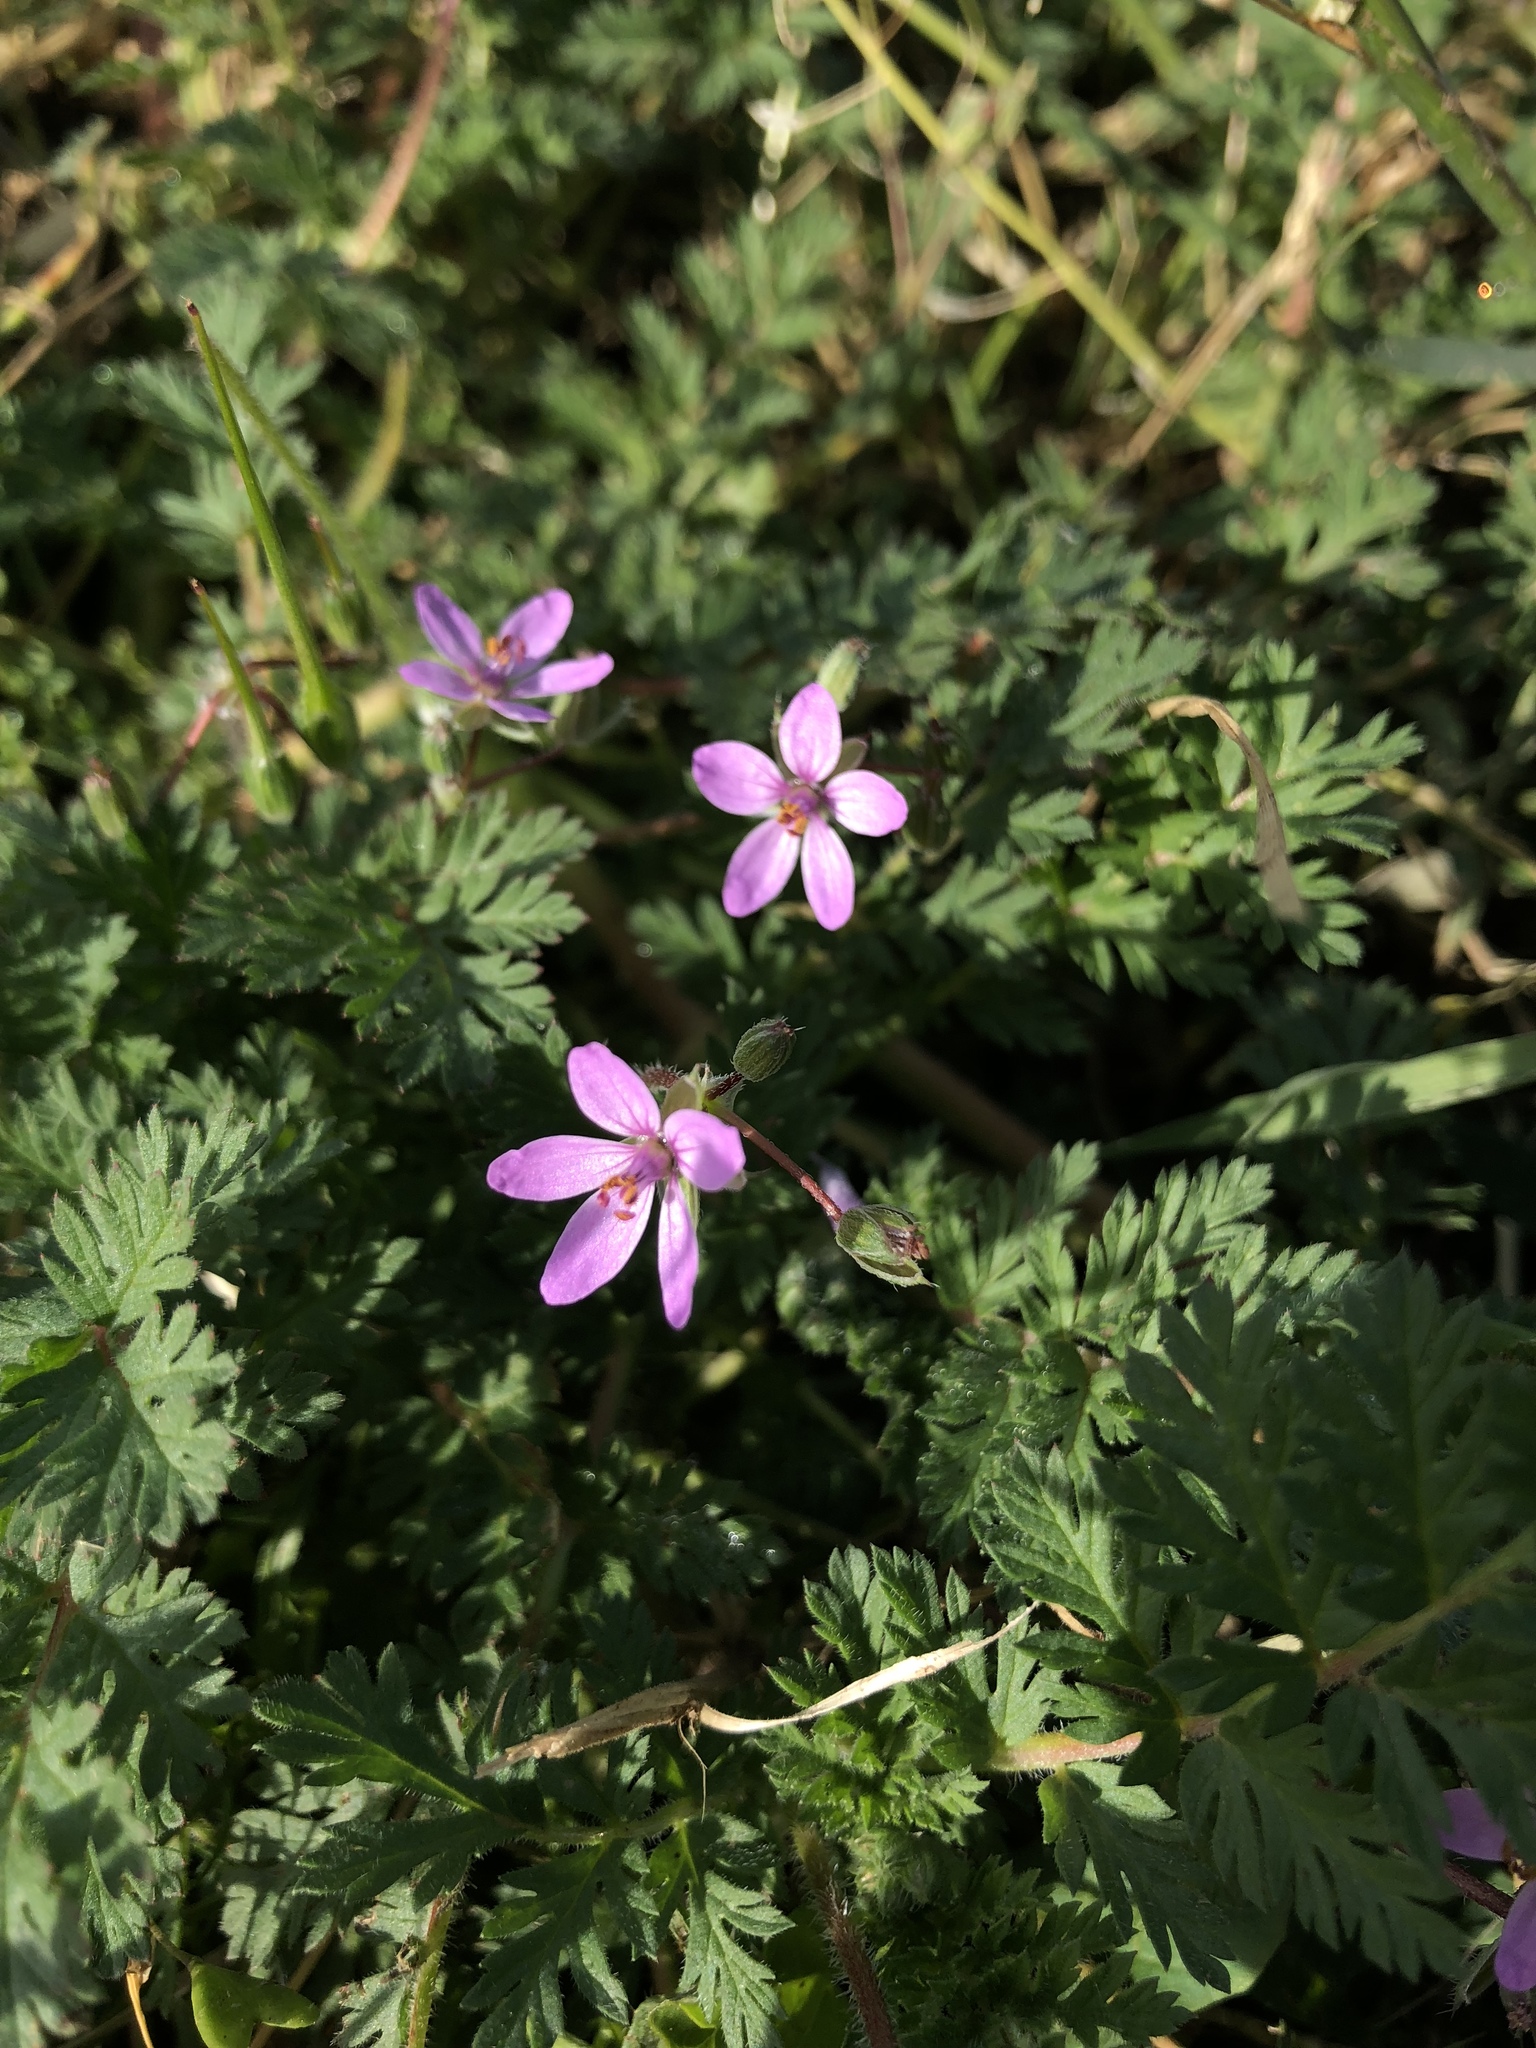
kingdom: Plantae
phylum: Tracheophyta
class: Magnoliopsida
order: Geraniales
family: Geraniaceae
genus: Erodium
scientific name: Erodium cicutarium
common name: Common stork's-bill
